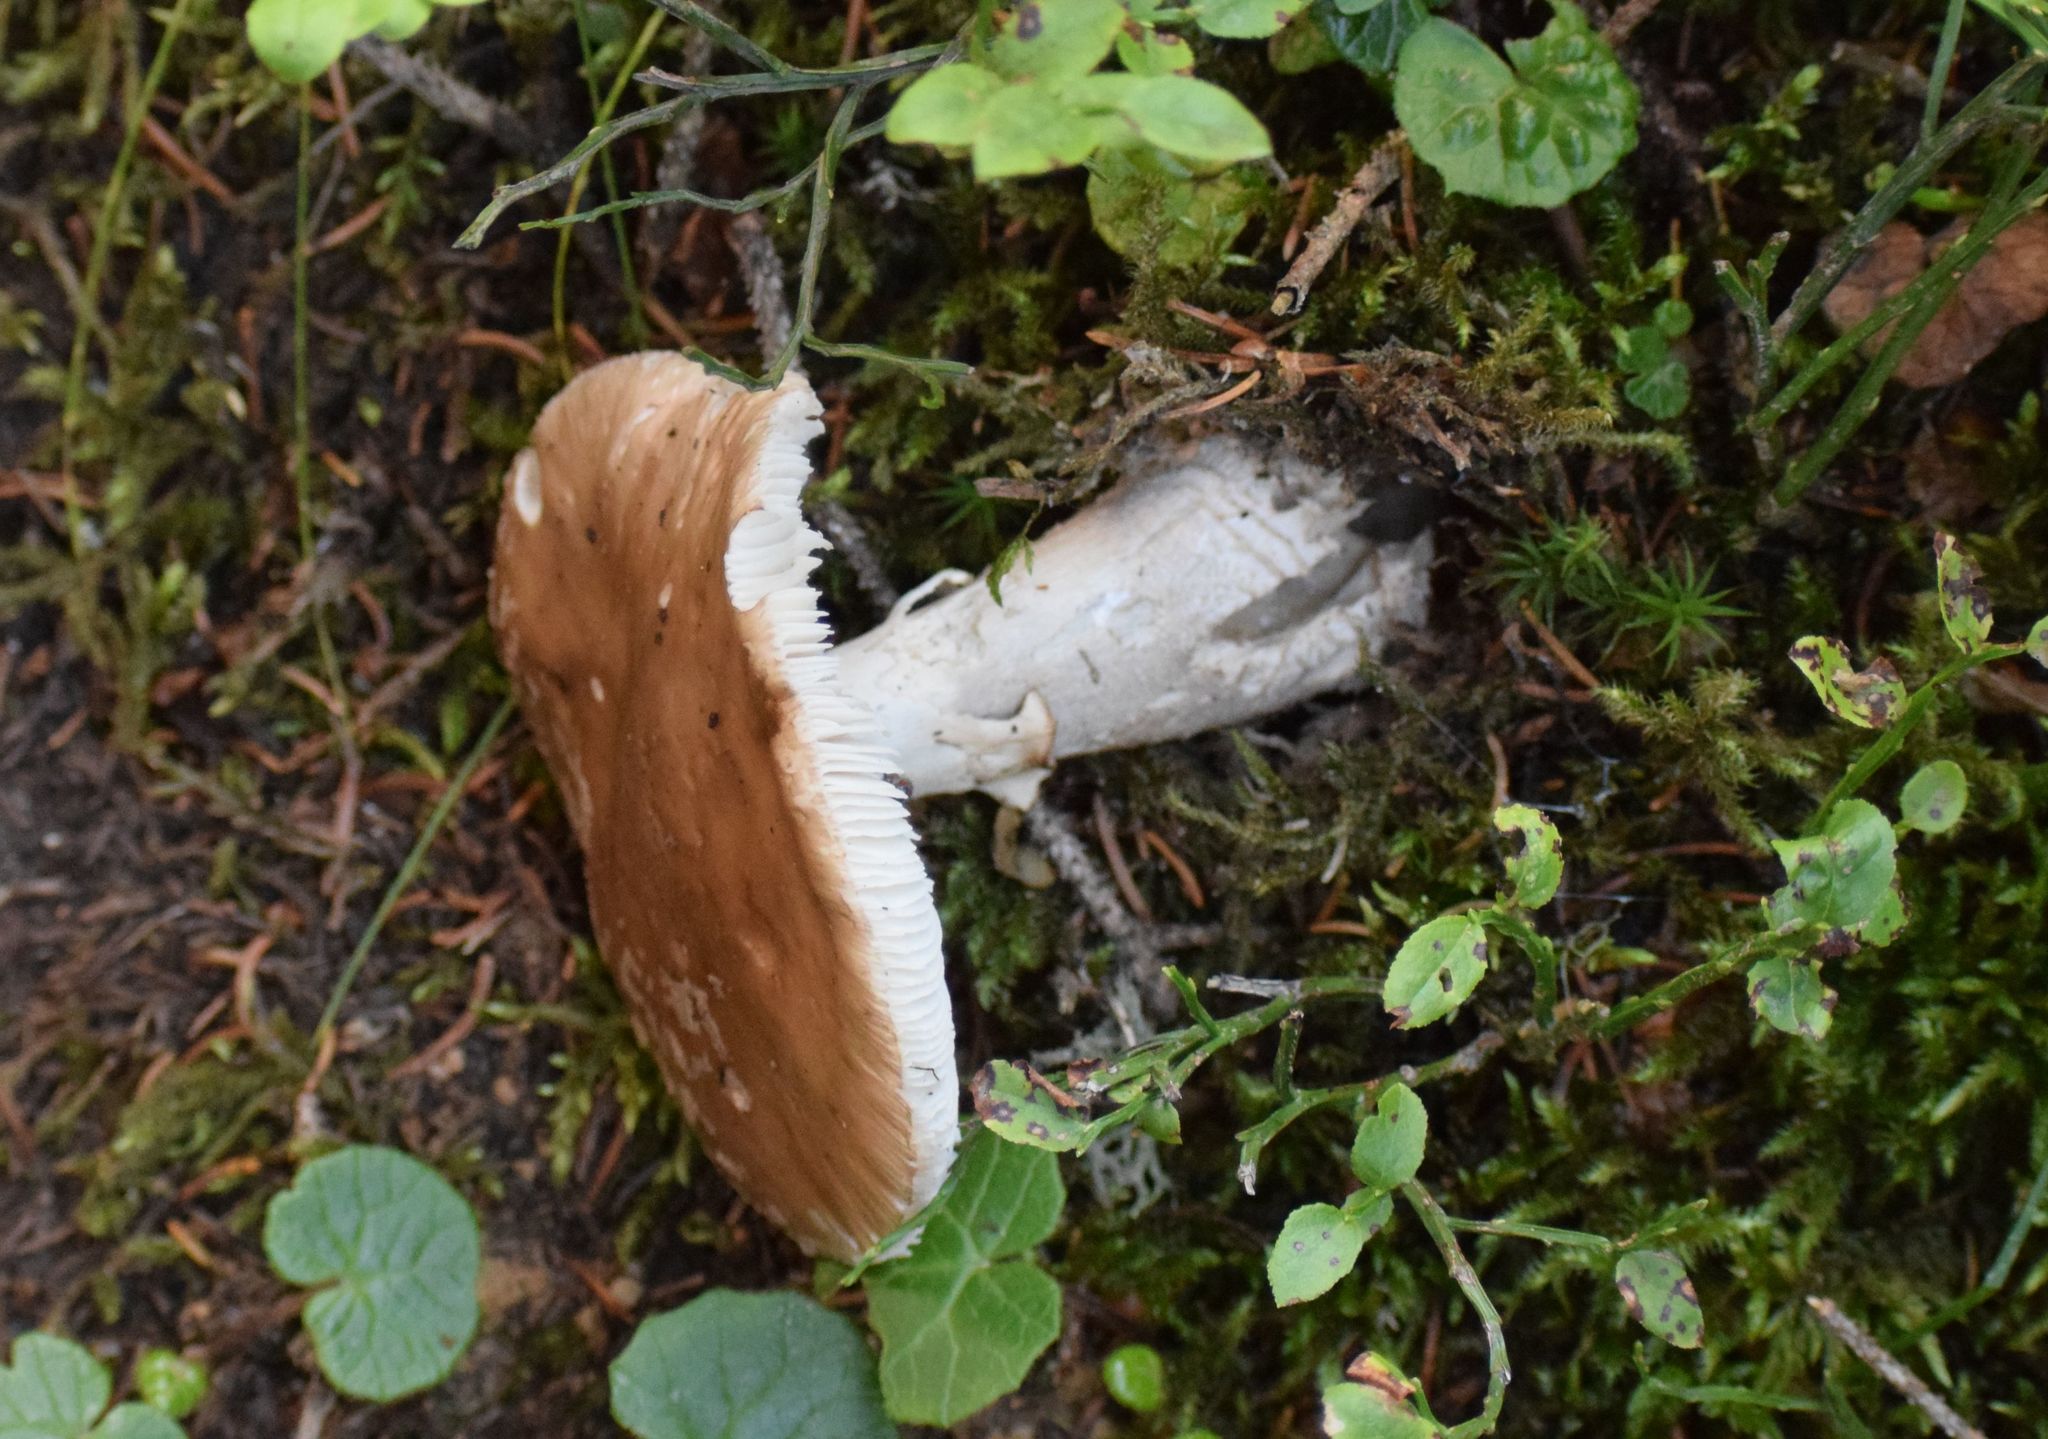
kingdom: Fungi
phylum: Basidiomycota
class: Agaricomycetes
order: Agaricales
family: Amanitaceae
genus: Amanita
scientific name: Amanita excelsa
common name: European false blusher
